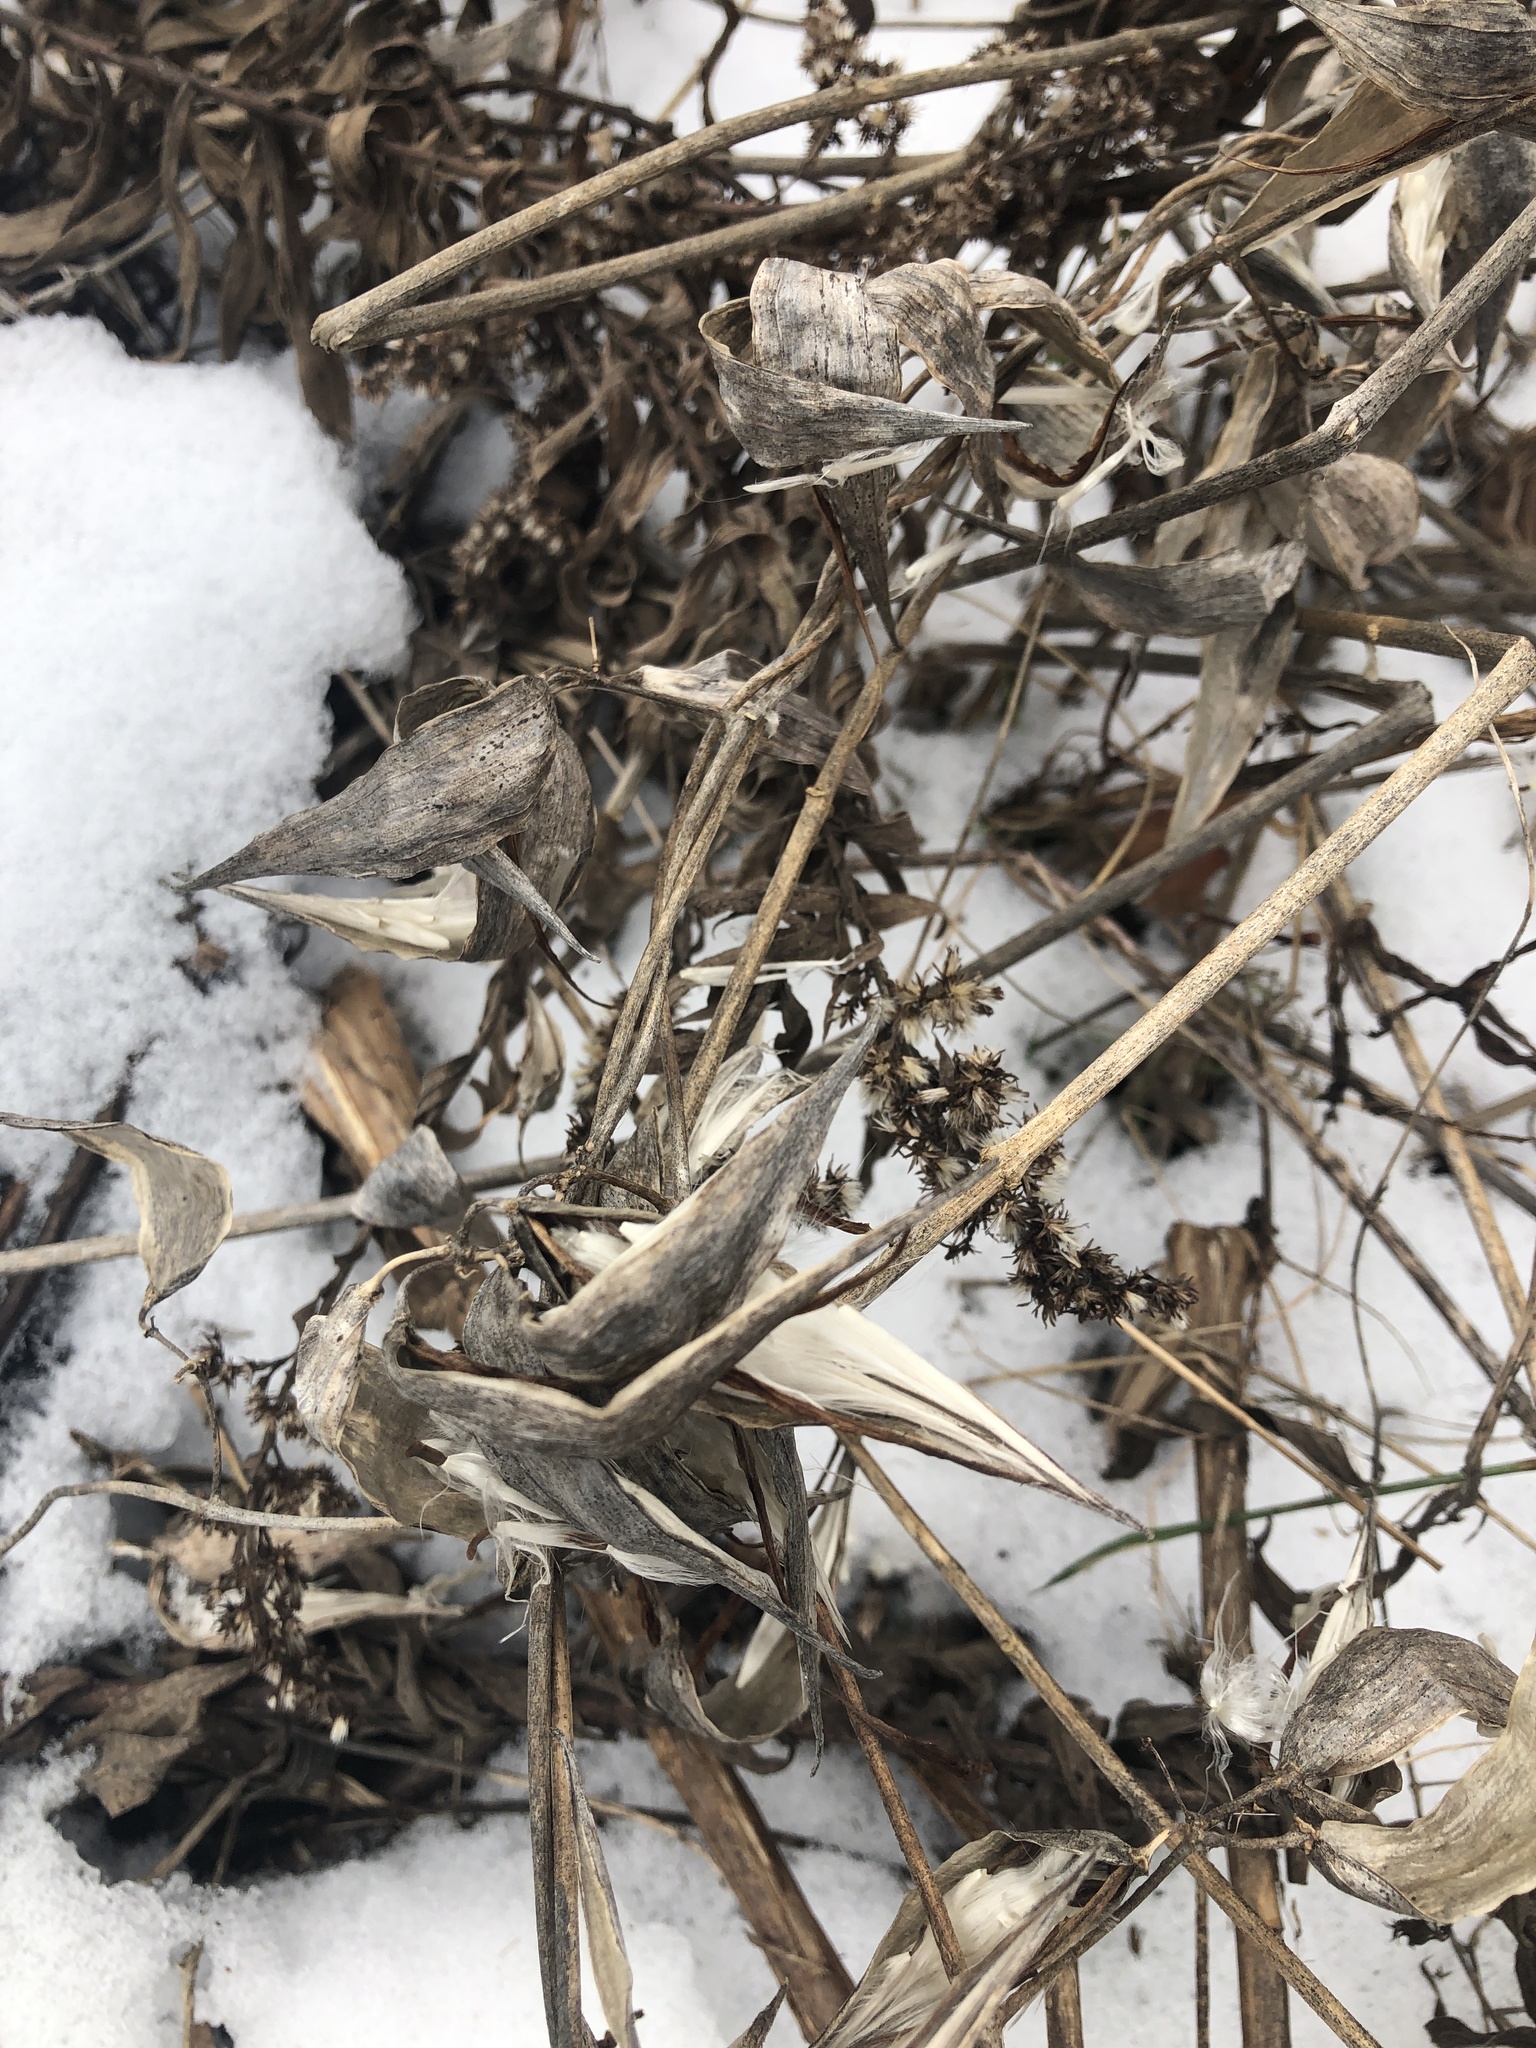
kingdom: Plantae
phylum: Tracheophyta
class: Magnoliopsida
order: Gentianales
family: Apocynaceae
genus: Vincetoxicum
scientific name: Vincetoxicum rossicum
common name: Dog-strangling vine
